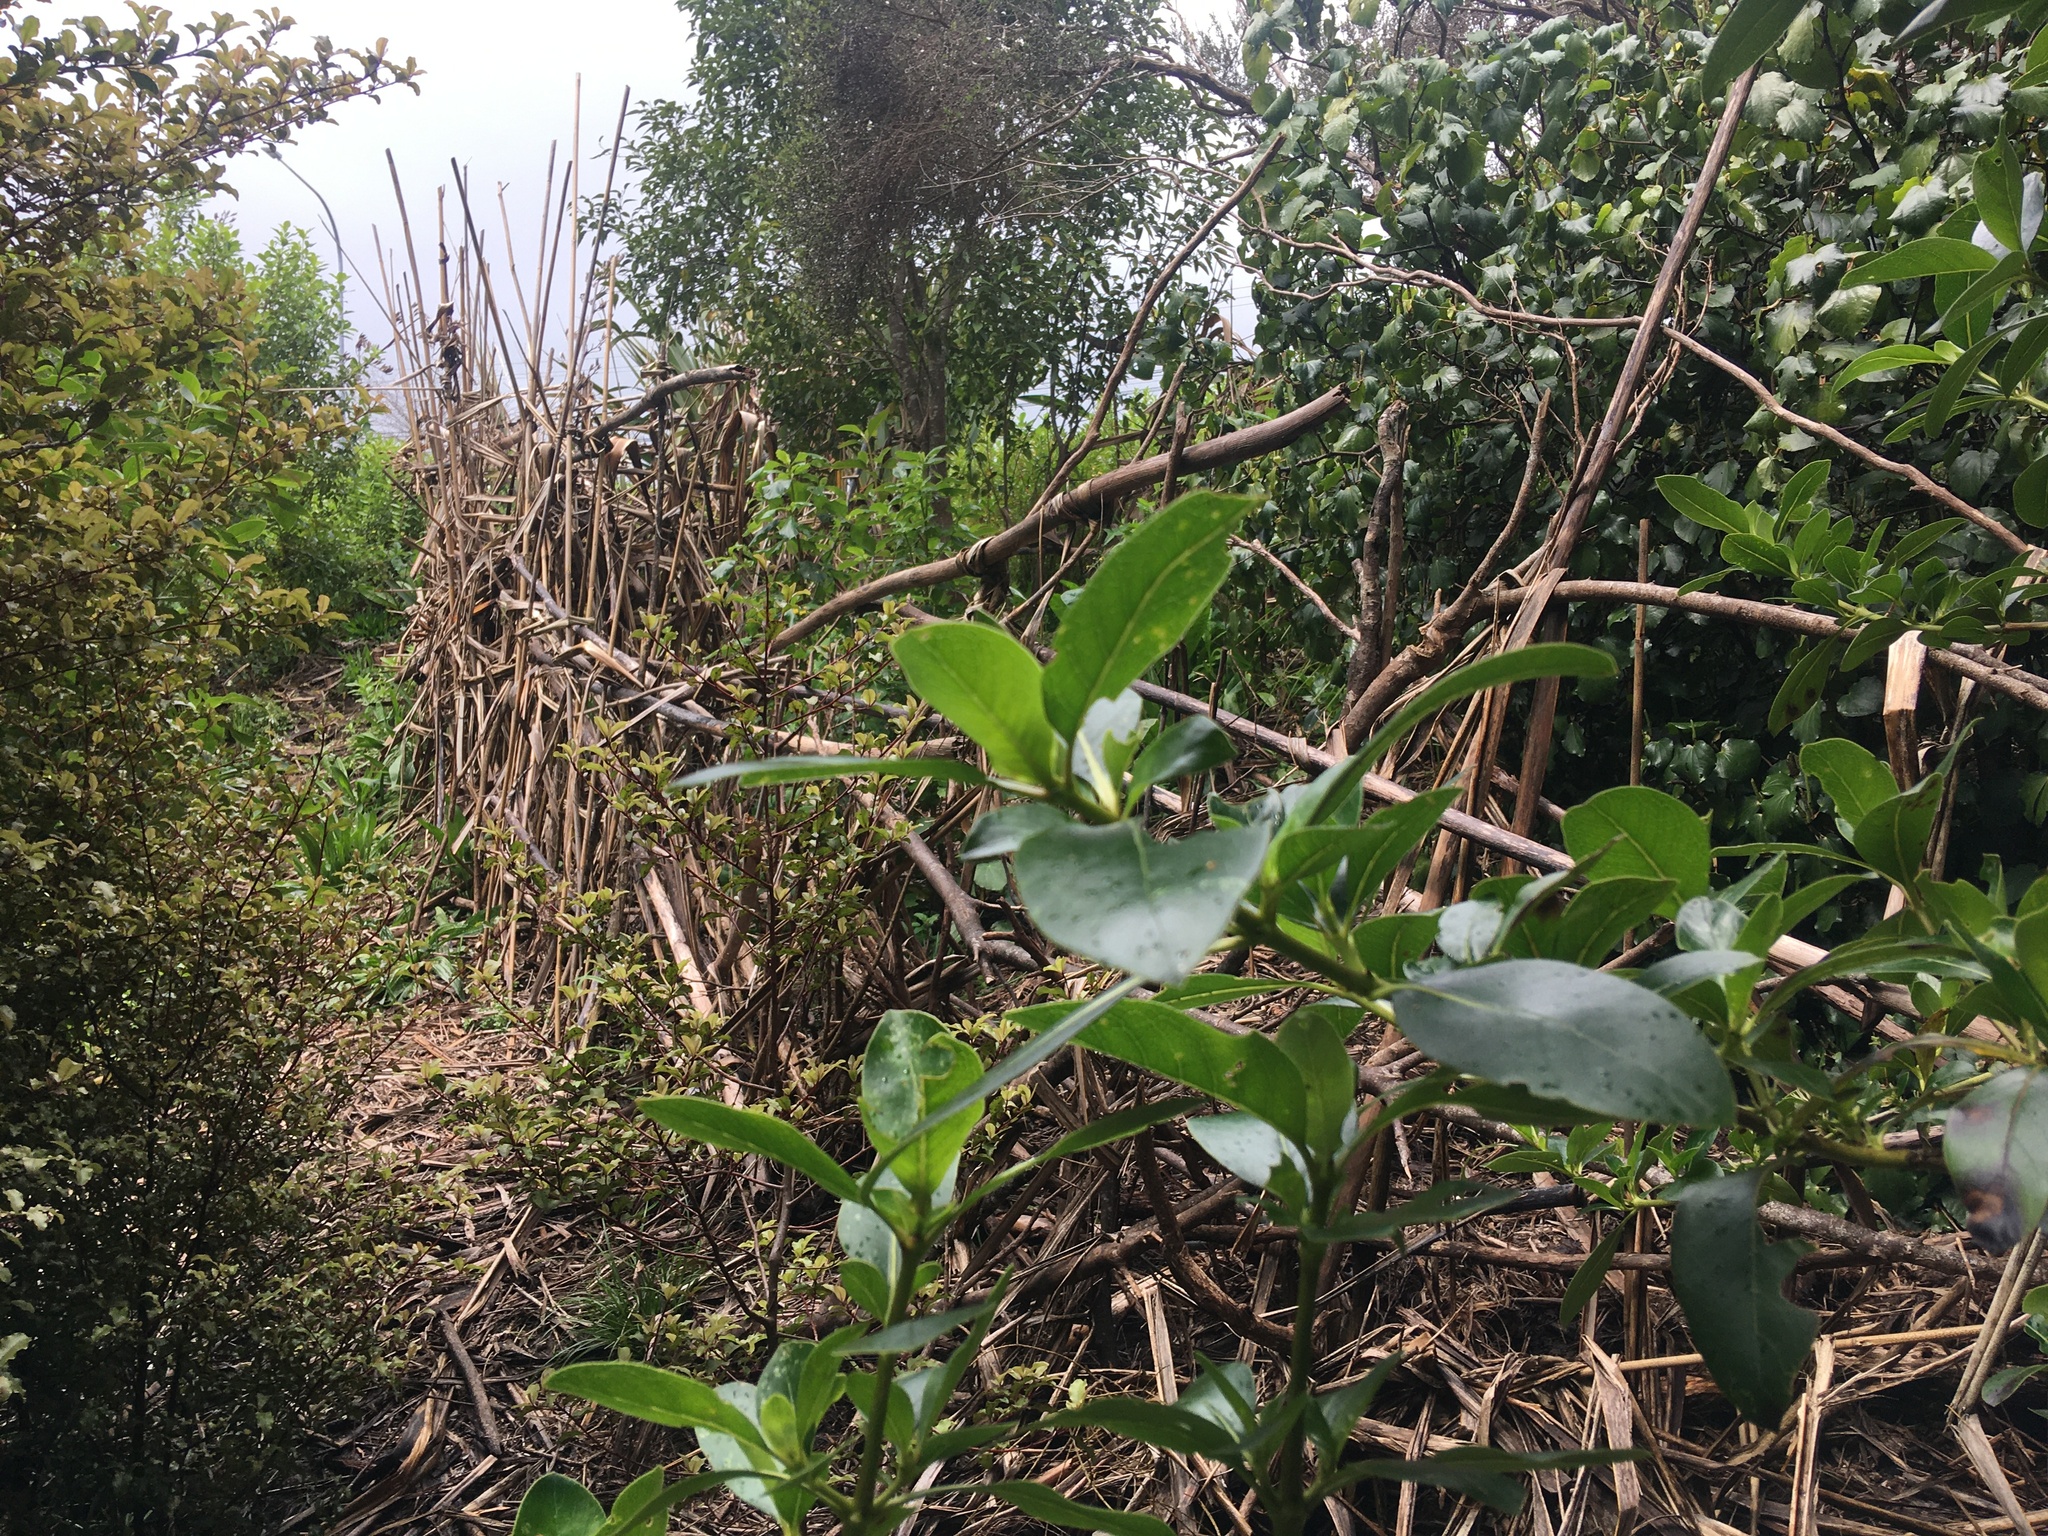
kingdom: Plantae
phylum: Tracheophyta
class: Magnoliopsida
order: Gentianales
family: Rubiaceae
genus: Coprosma
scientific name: Coprosma robusta
